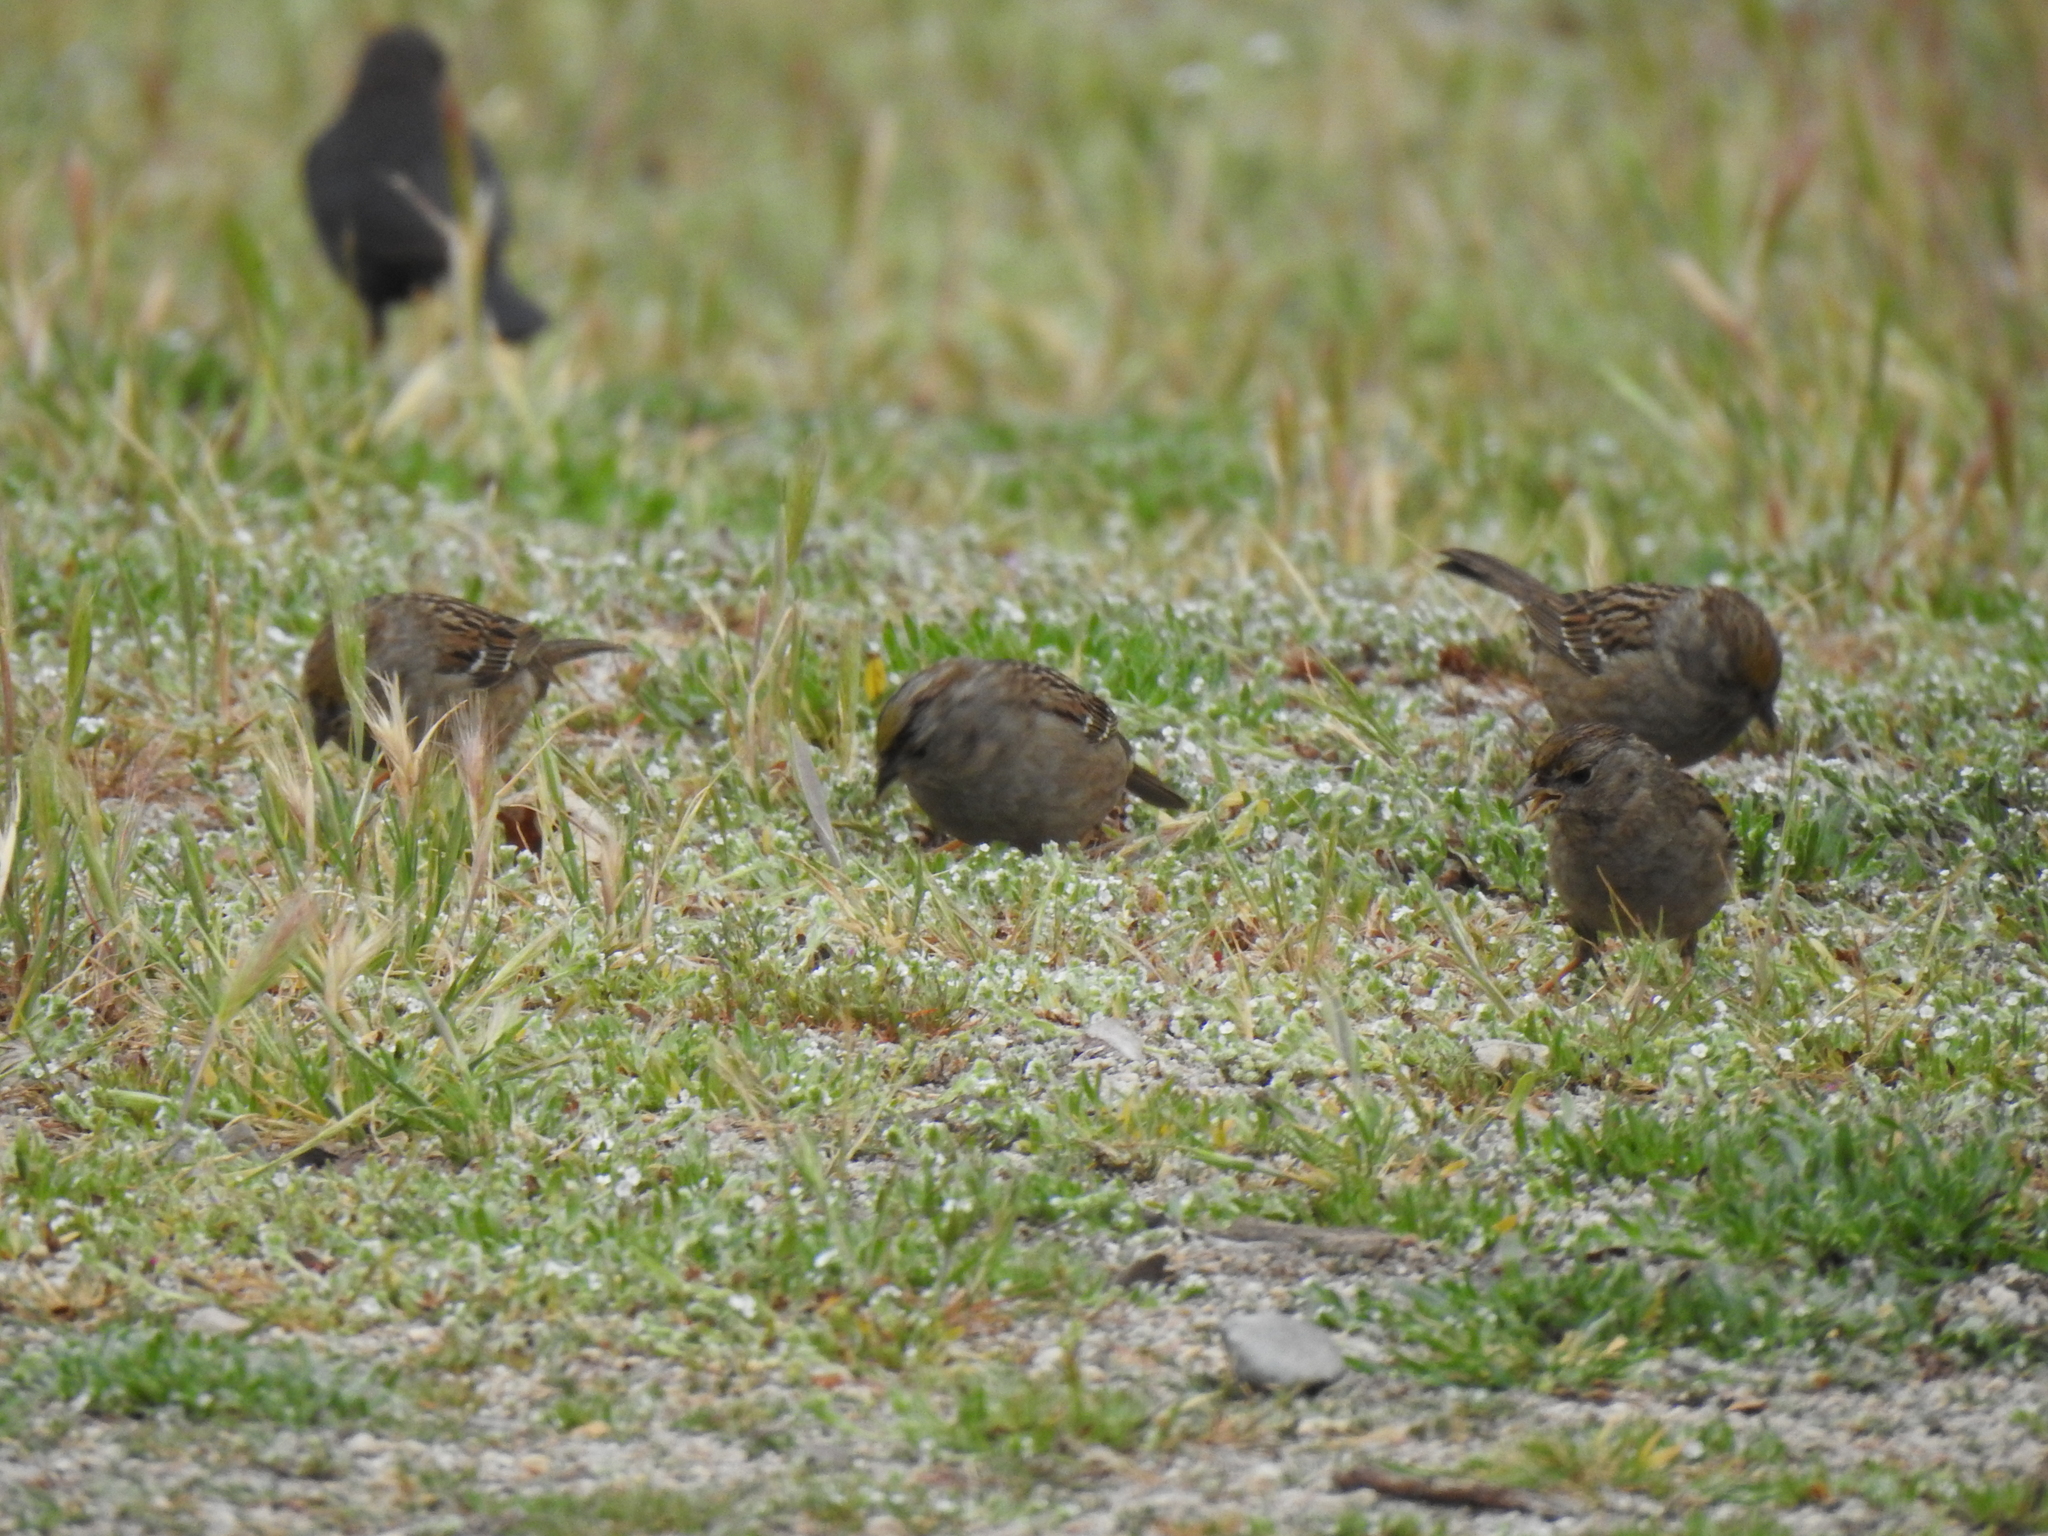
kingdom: Animalia
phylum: Chordata
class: Aves
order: Passeriformes
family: Passerellidae
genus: Zonotrichia
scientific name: Zonotrichia atricapilla
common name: Golden-crowned sparrow
